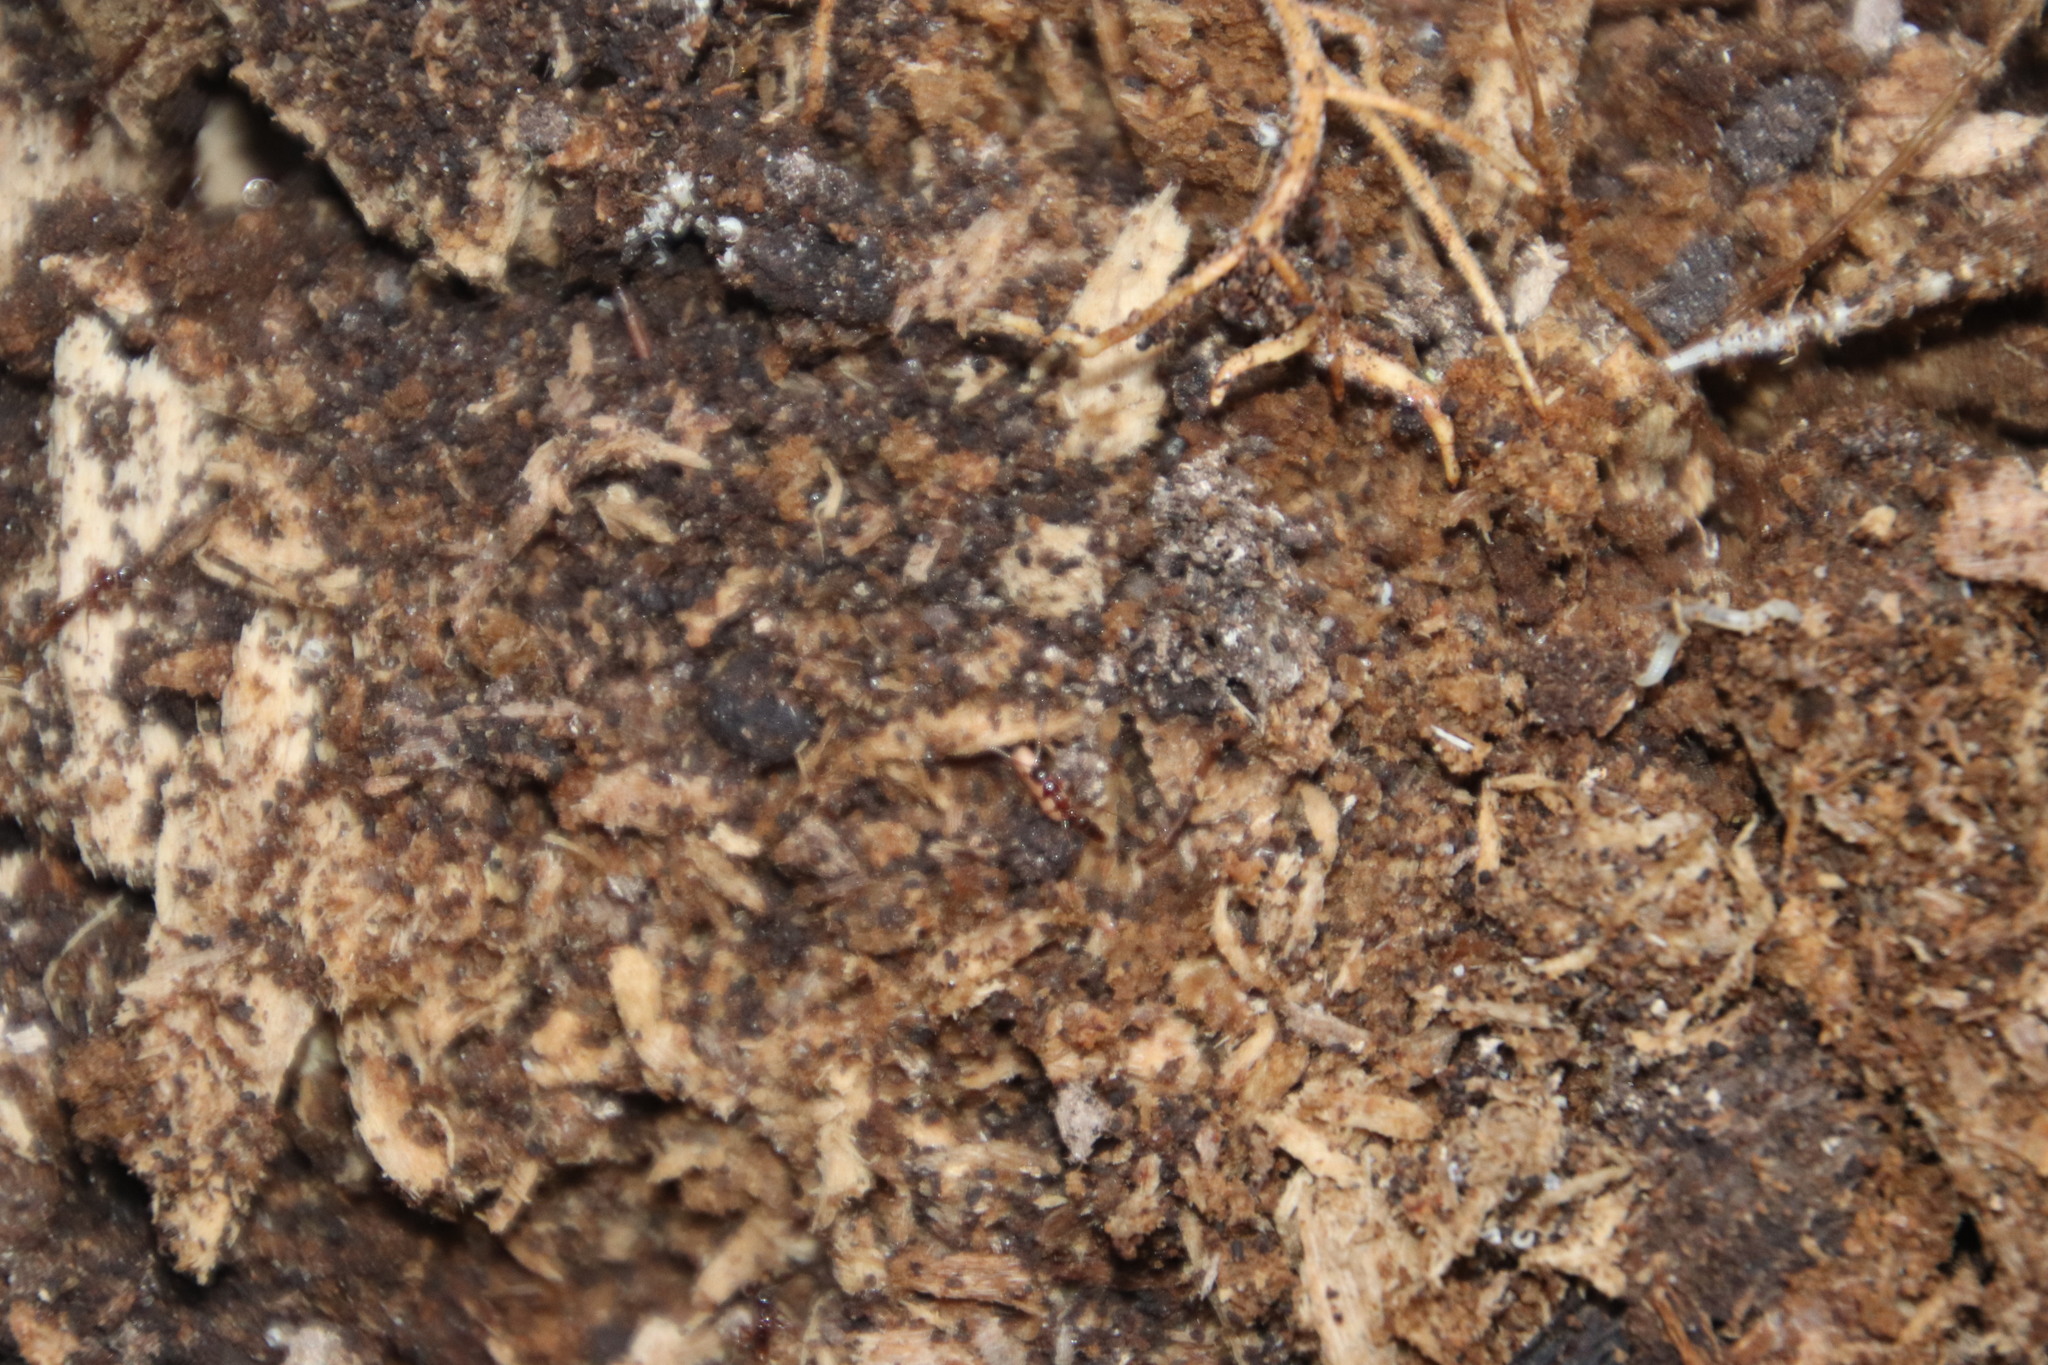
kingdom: Animalia
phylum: Arthropoda
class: Insecta
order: Hymenoptera
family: Formicidae
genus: Leptogenys
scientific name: Leptogenys castanea
